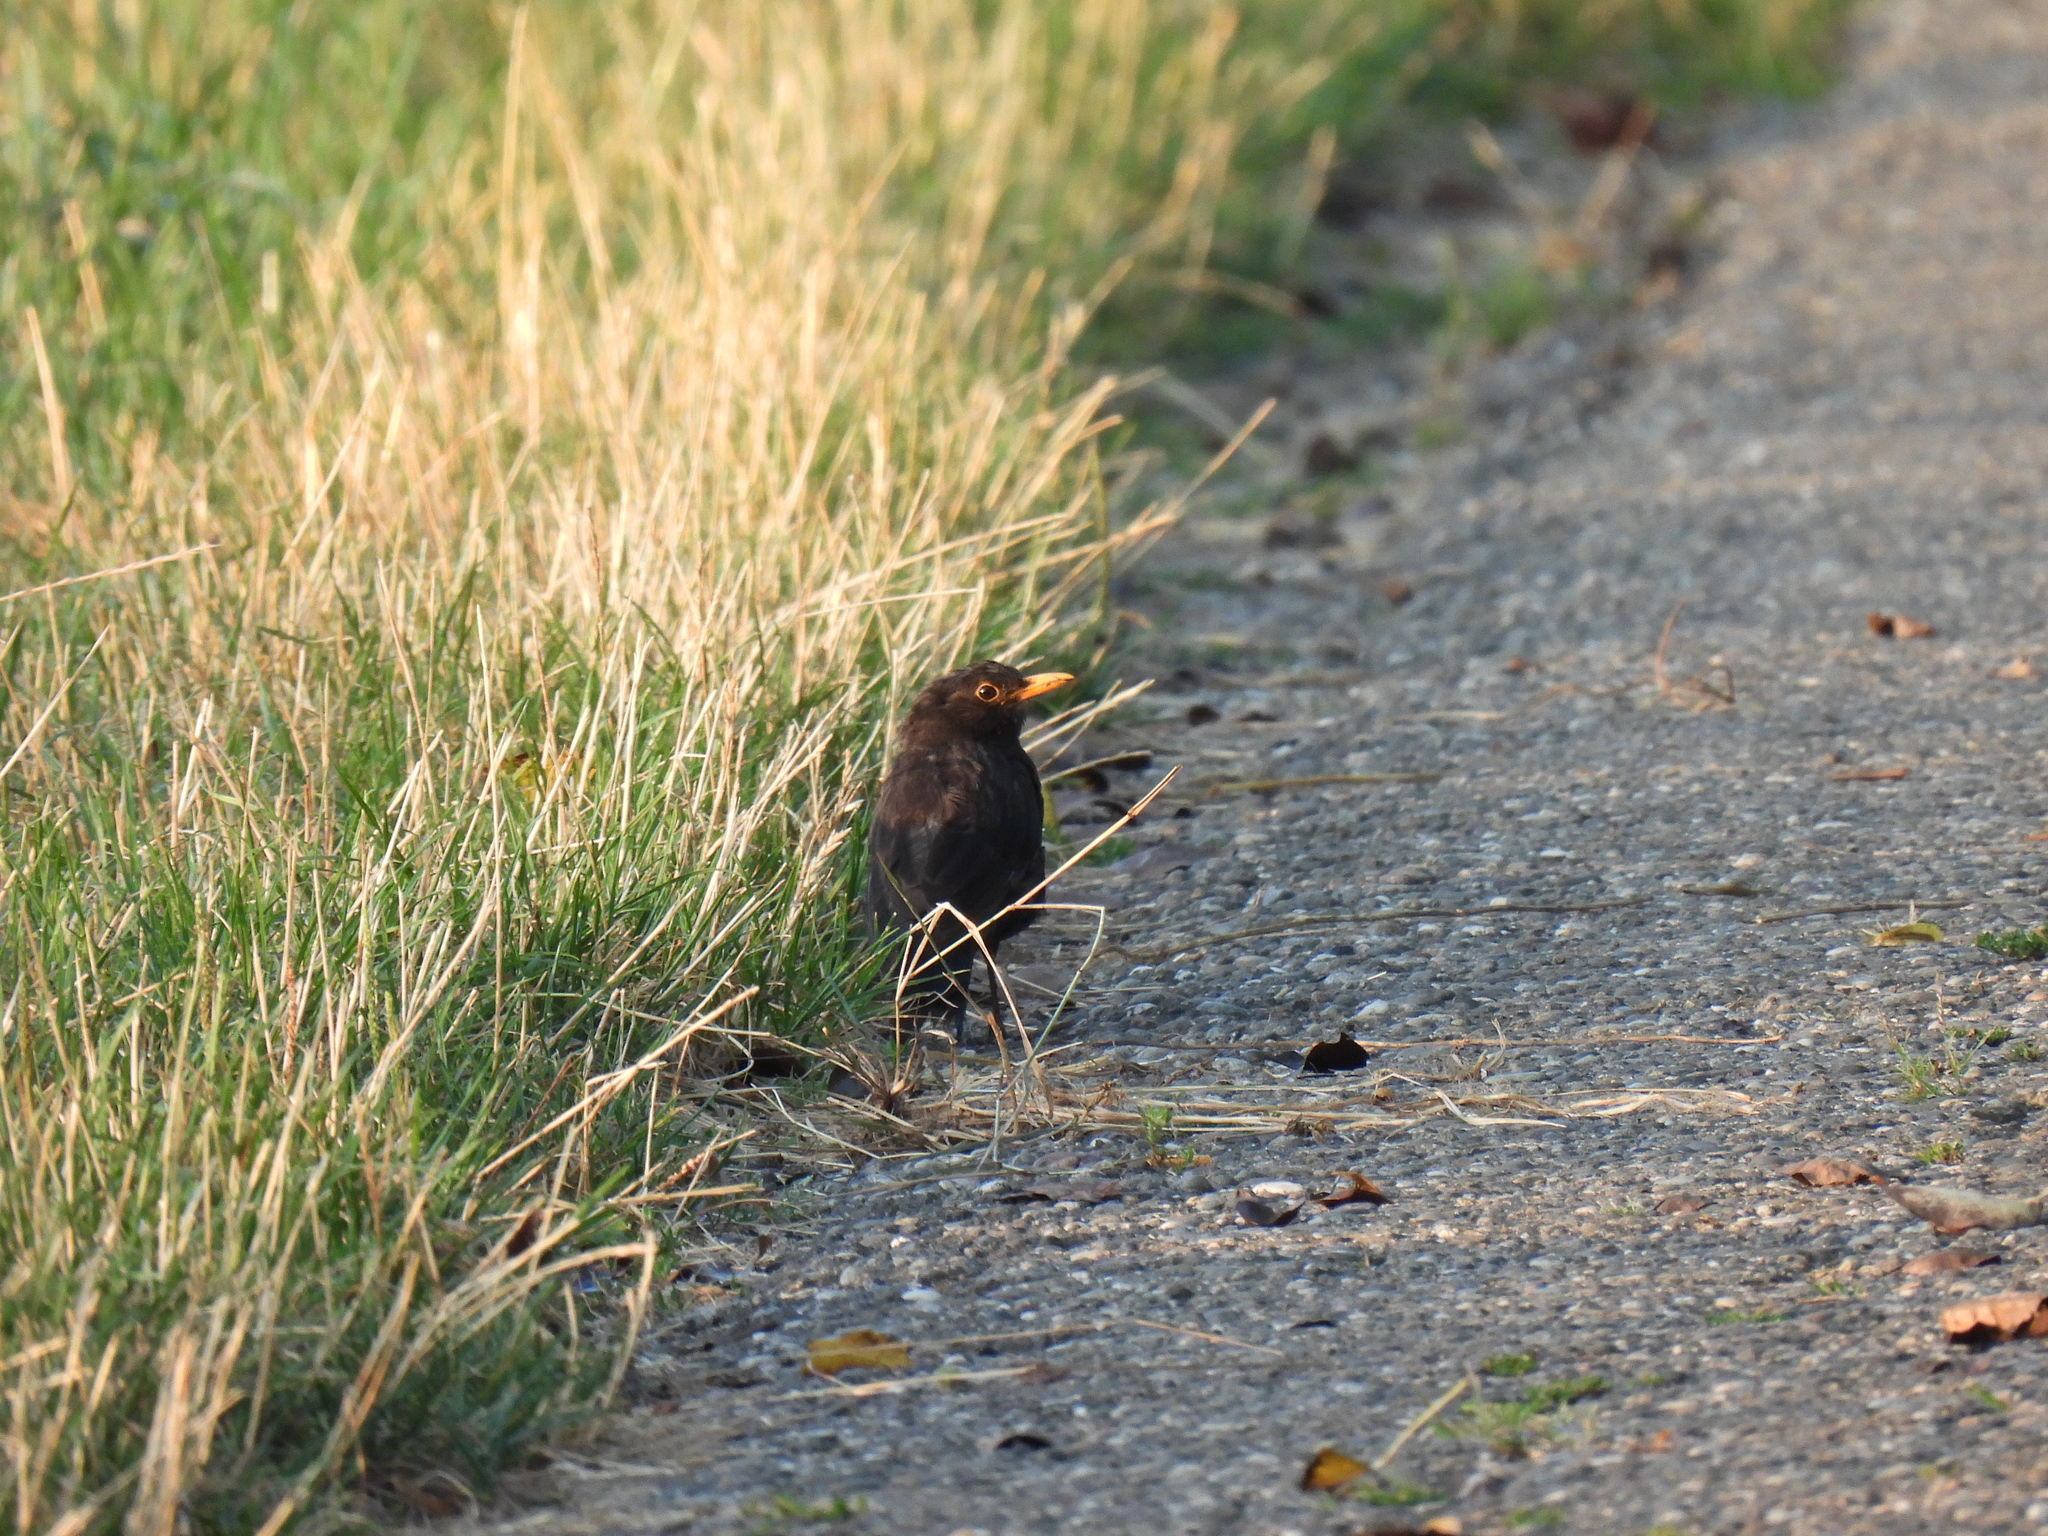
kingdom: Animalia
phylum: Chordata
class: Aves
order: Passeriformes
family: Turdidae
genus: Turdus
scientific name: Turdus merula
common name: Common blackbird
